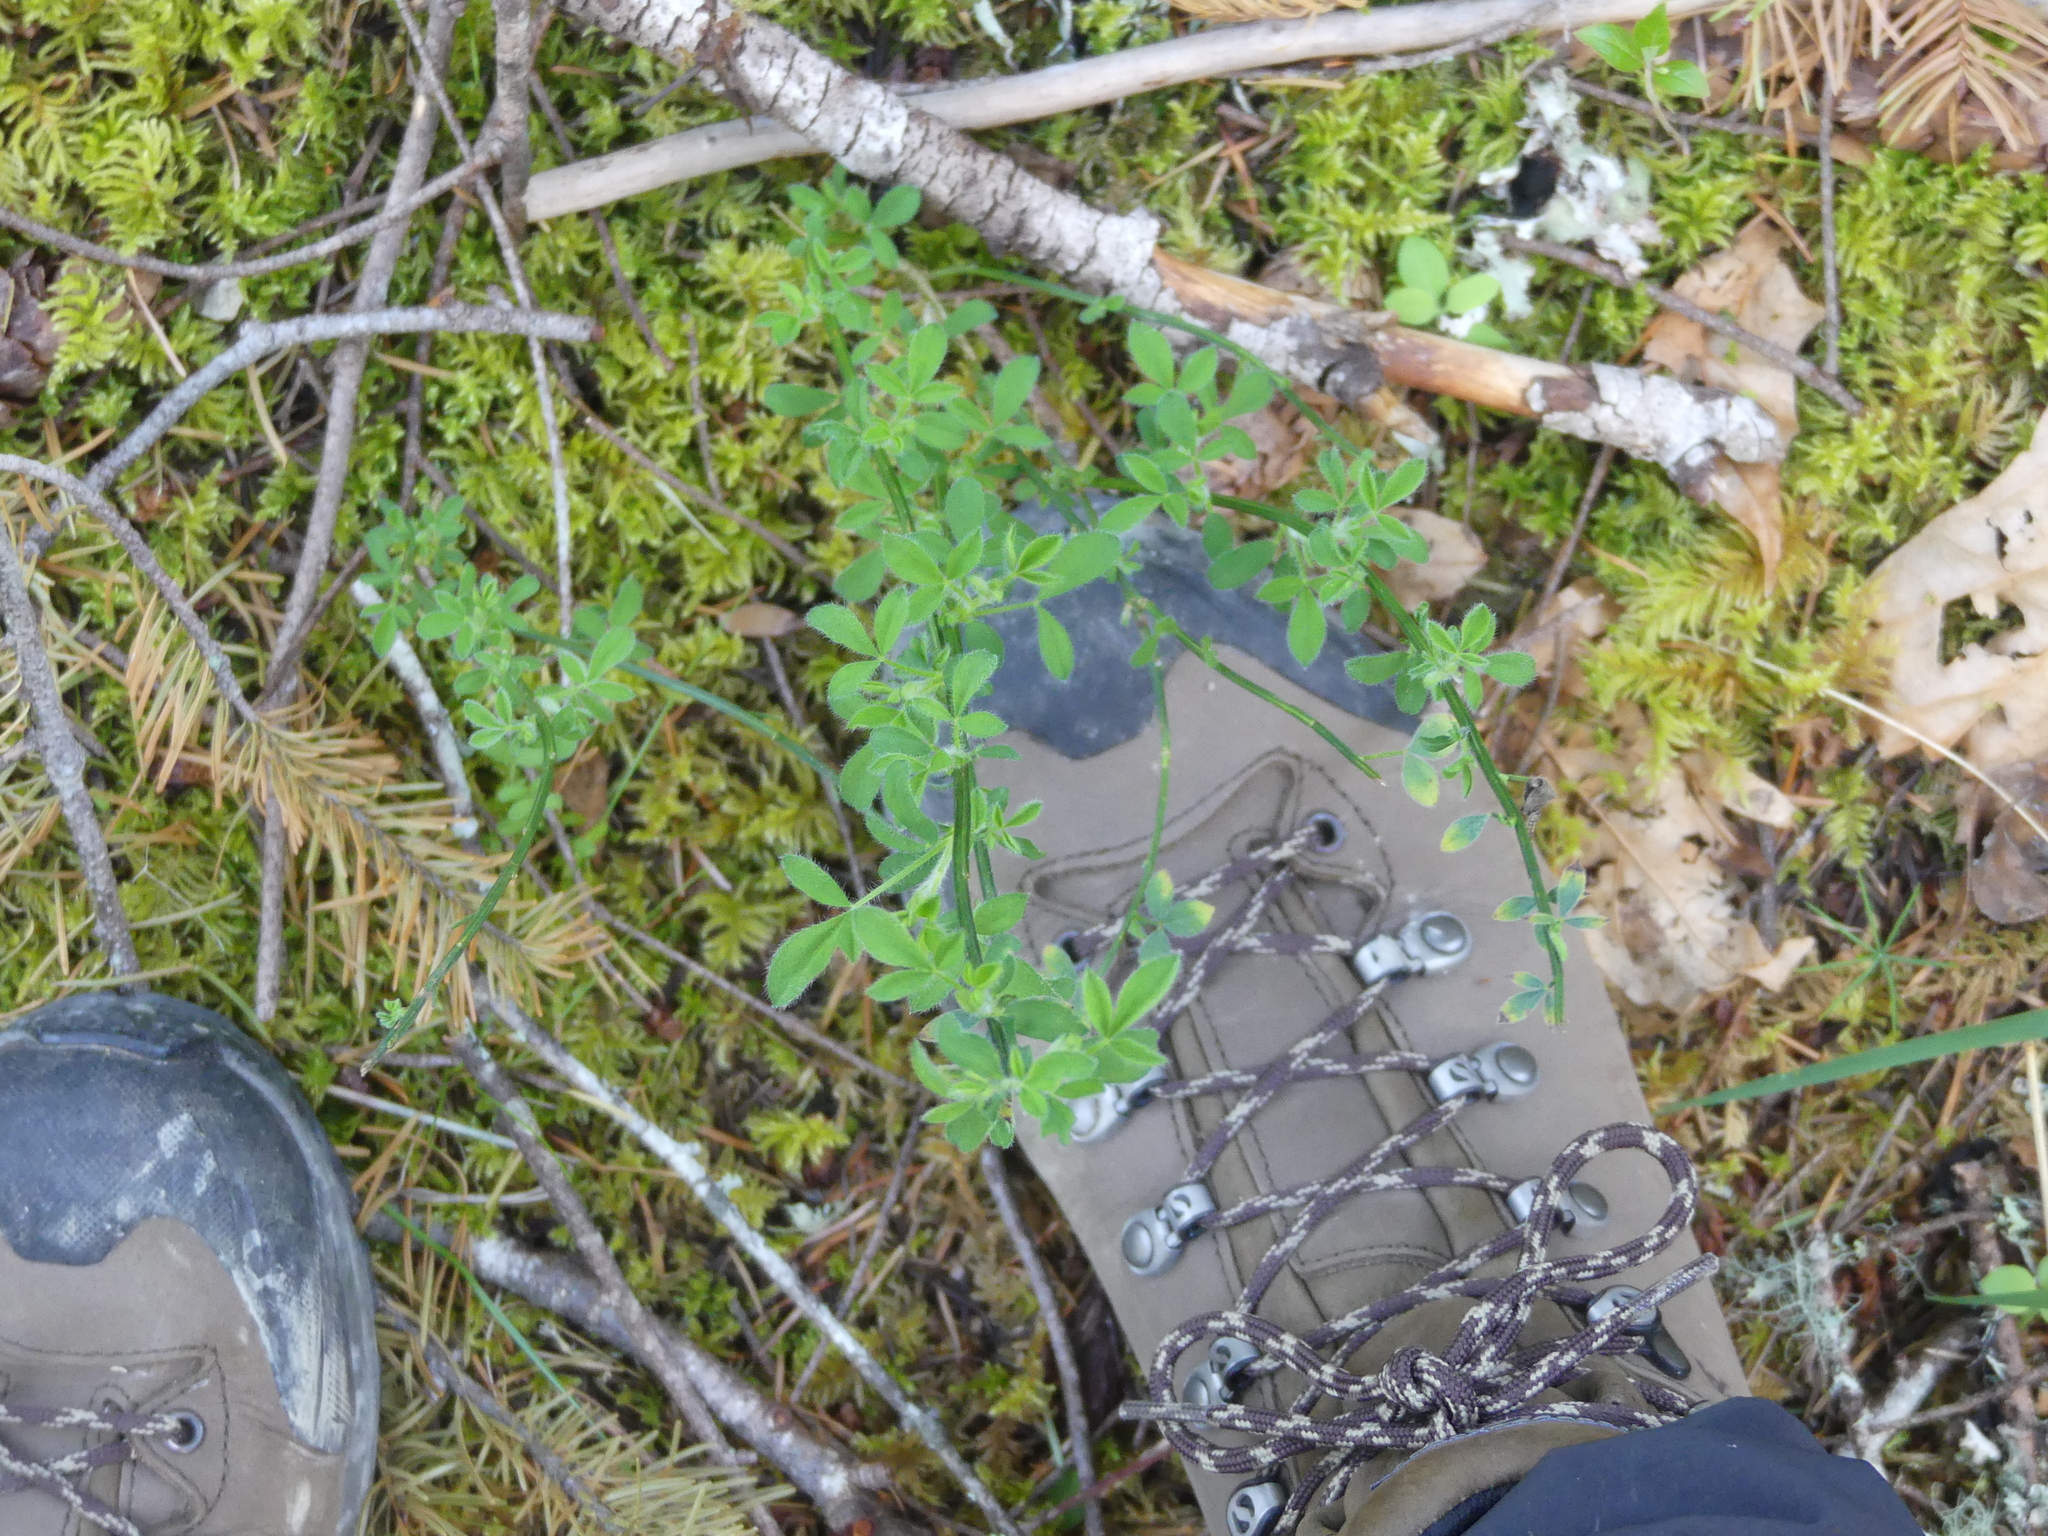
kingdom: Plantae
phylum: Tracheophyta
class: Magnoliopsida
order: Fabales
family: Fabaceae
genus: Cytisus
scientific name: Cytisus scoparius
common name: Scotch broom
